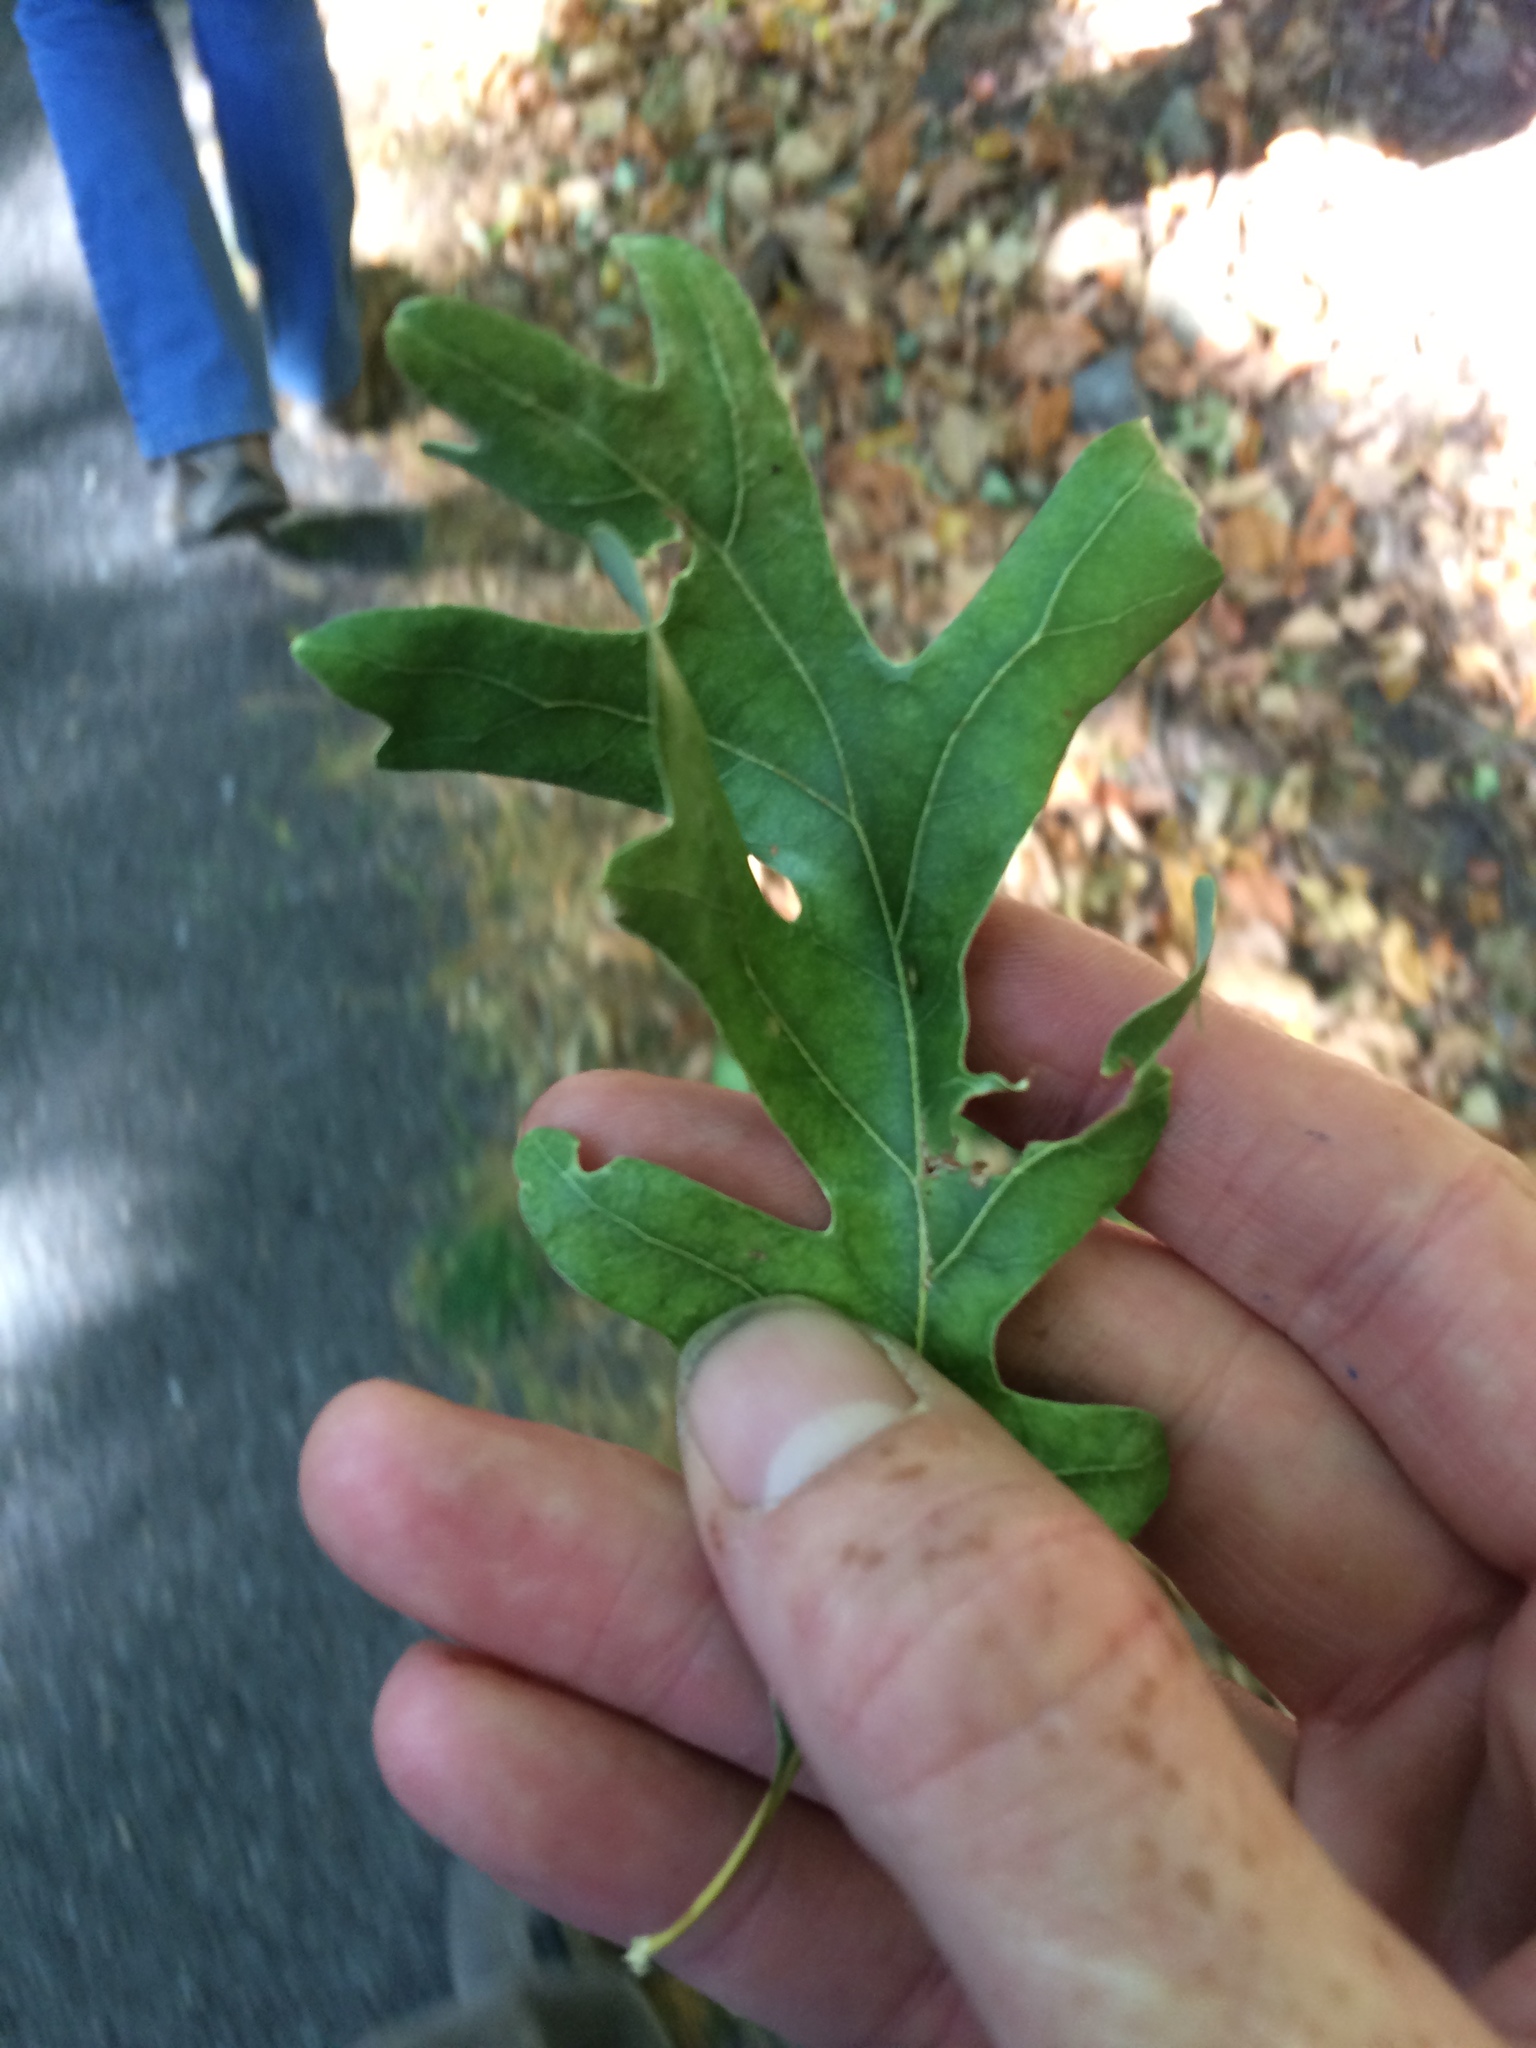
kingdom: Plantae
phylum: Tracheophyta
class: Magnoliopsida
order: Fagales
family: Fagaceae
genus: Quercus
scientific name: Quercus alba
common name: White oak
